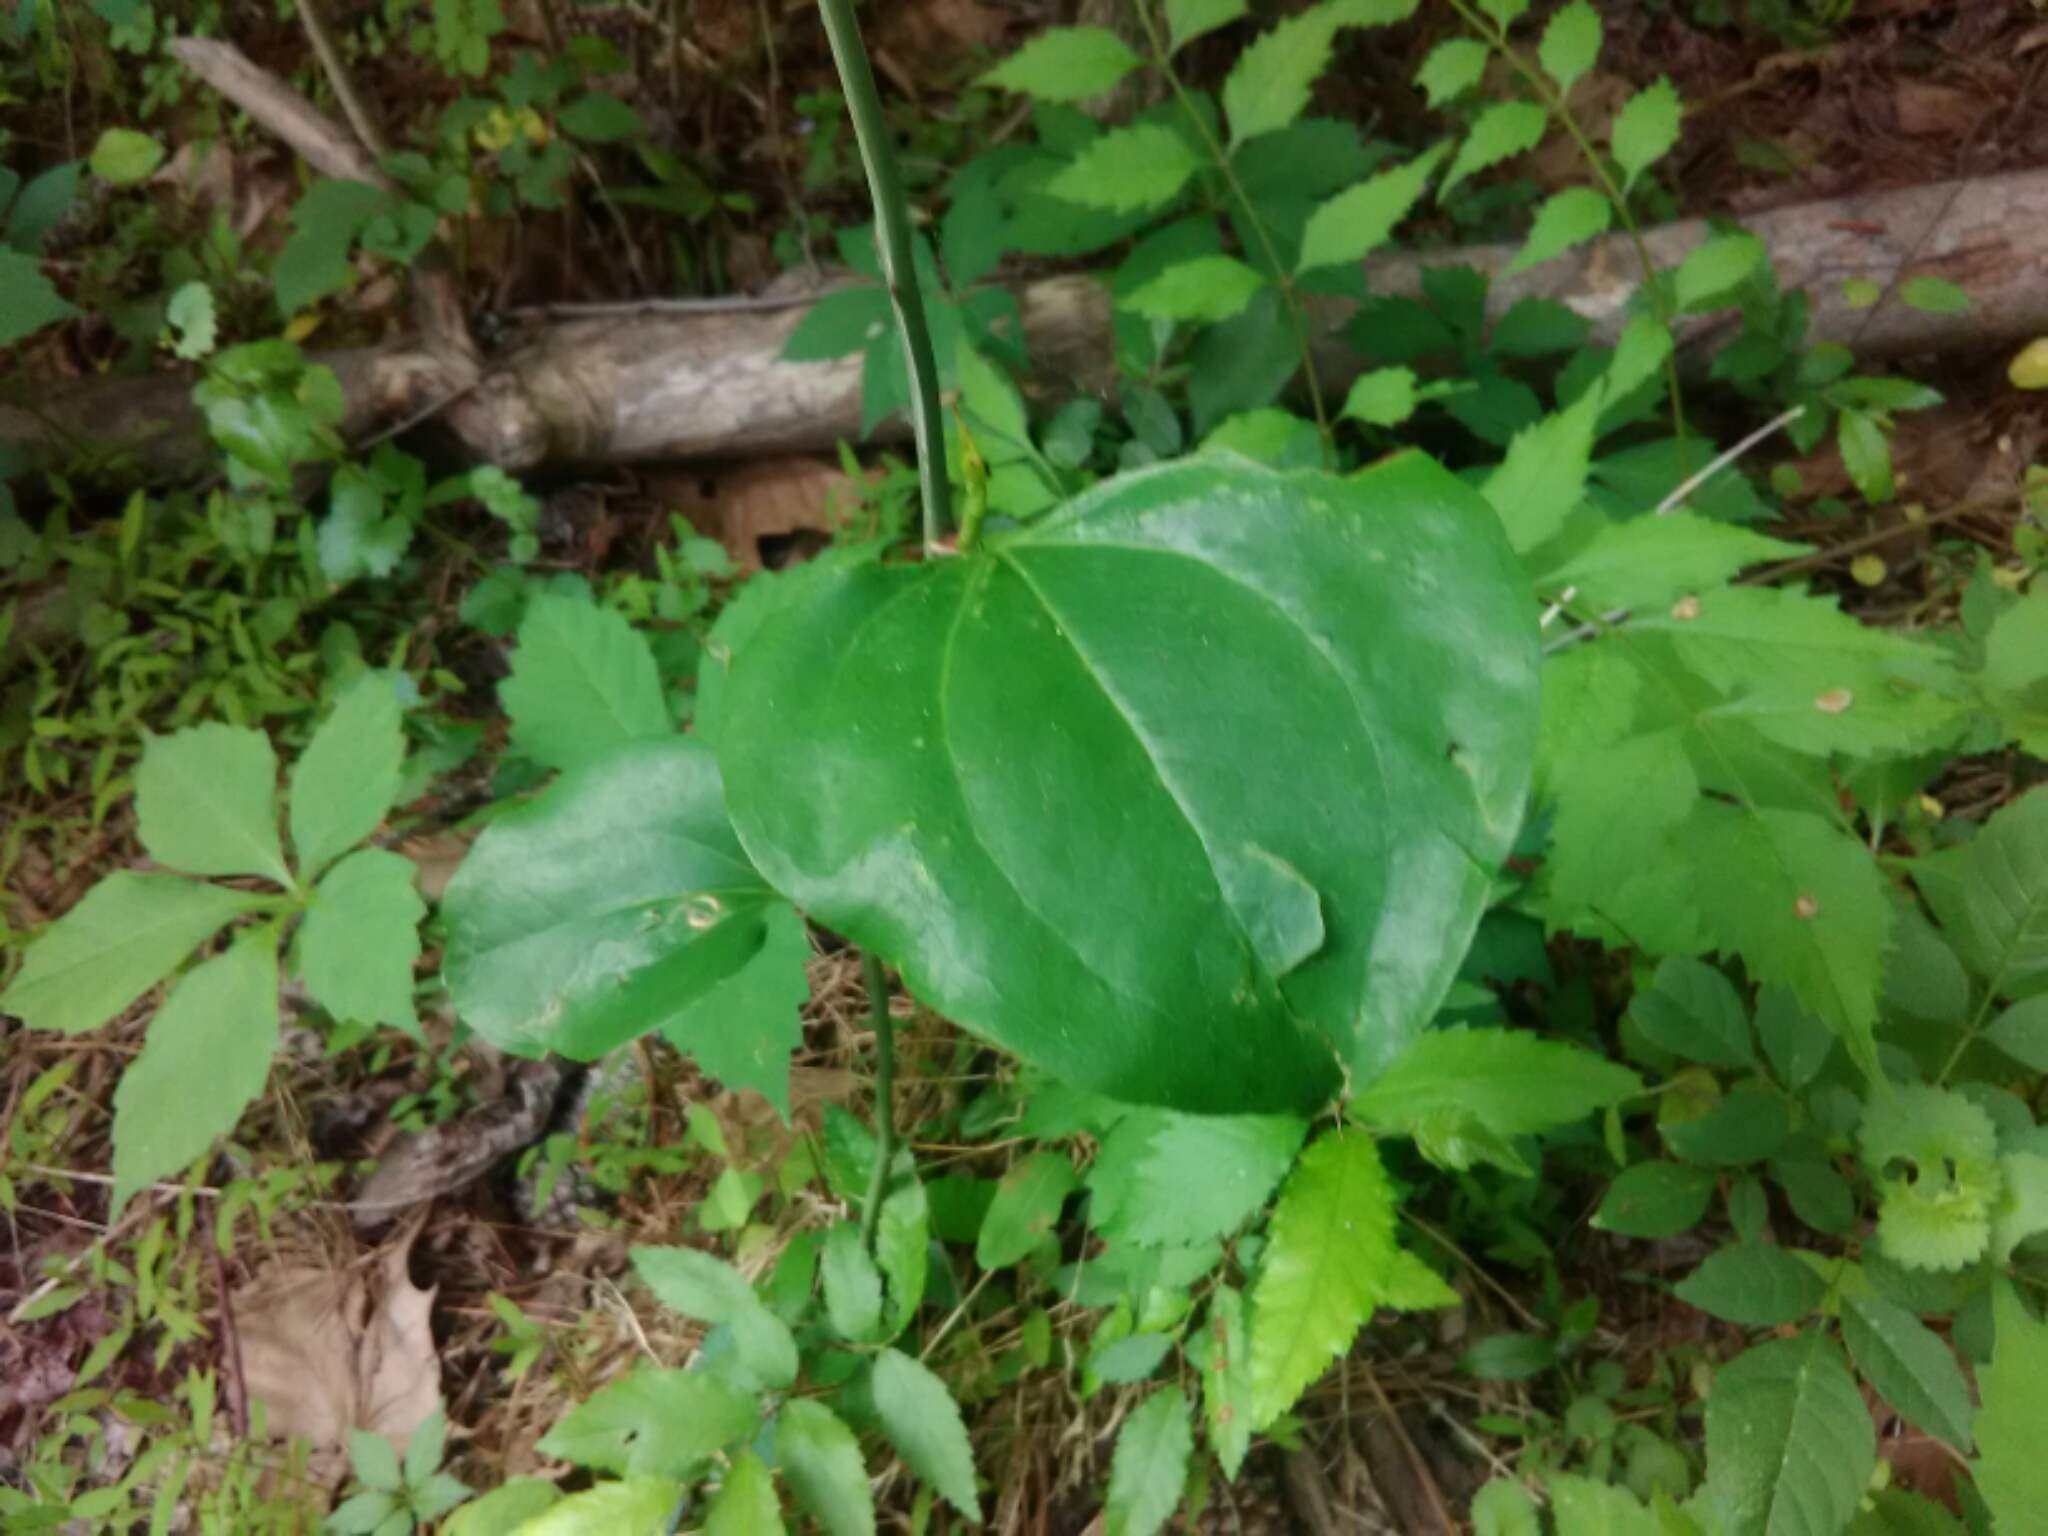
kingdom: Plantae
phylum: Tracheophyta
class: Liliopsida
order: Liliales
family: Smilacaceae
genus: Smilax
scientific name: Smilax rotundifolia
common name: Bullbriar
